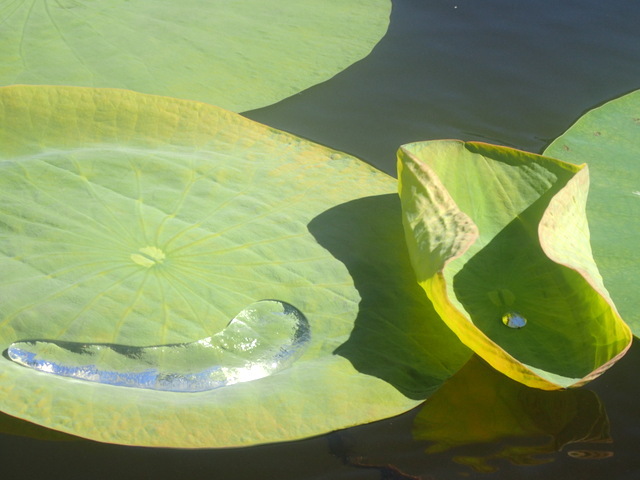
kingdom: Plantae
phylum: Tracheophyta
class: Magnoliopsida
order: Proteales
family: Nelumbonaceae
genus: Nelumbo
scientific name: Nelumbo lutea
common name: American lotus
